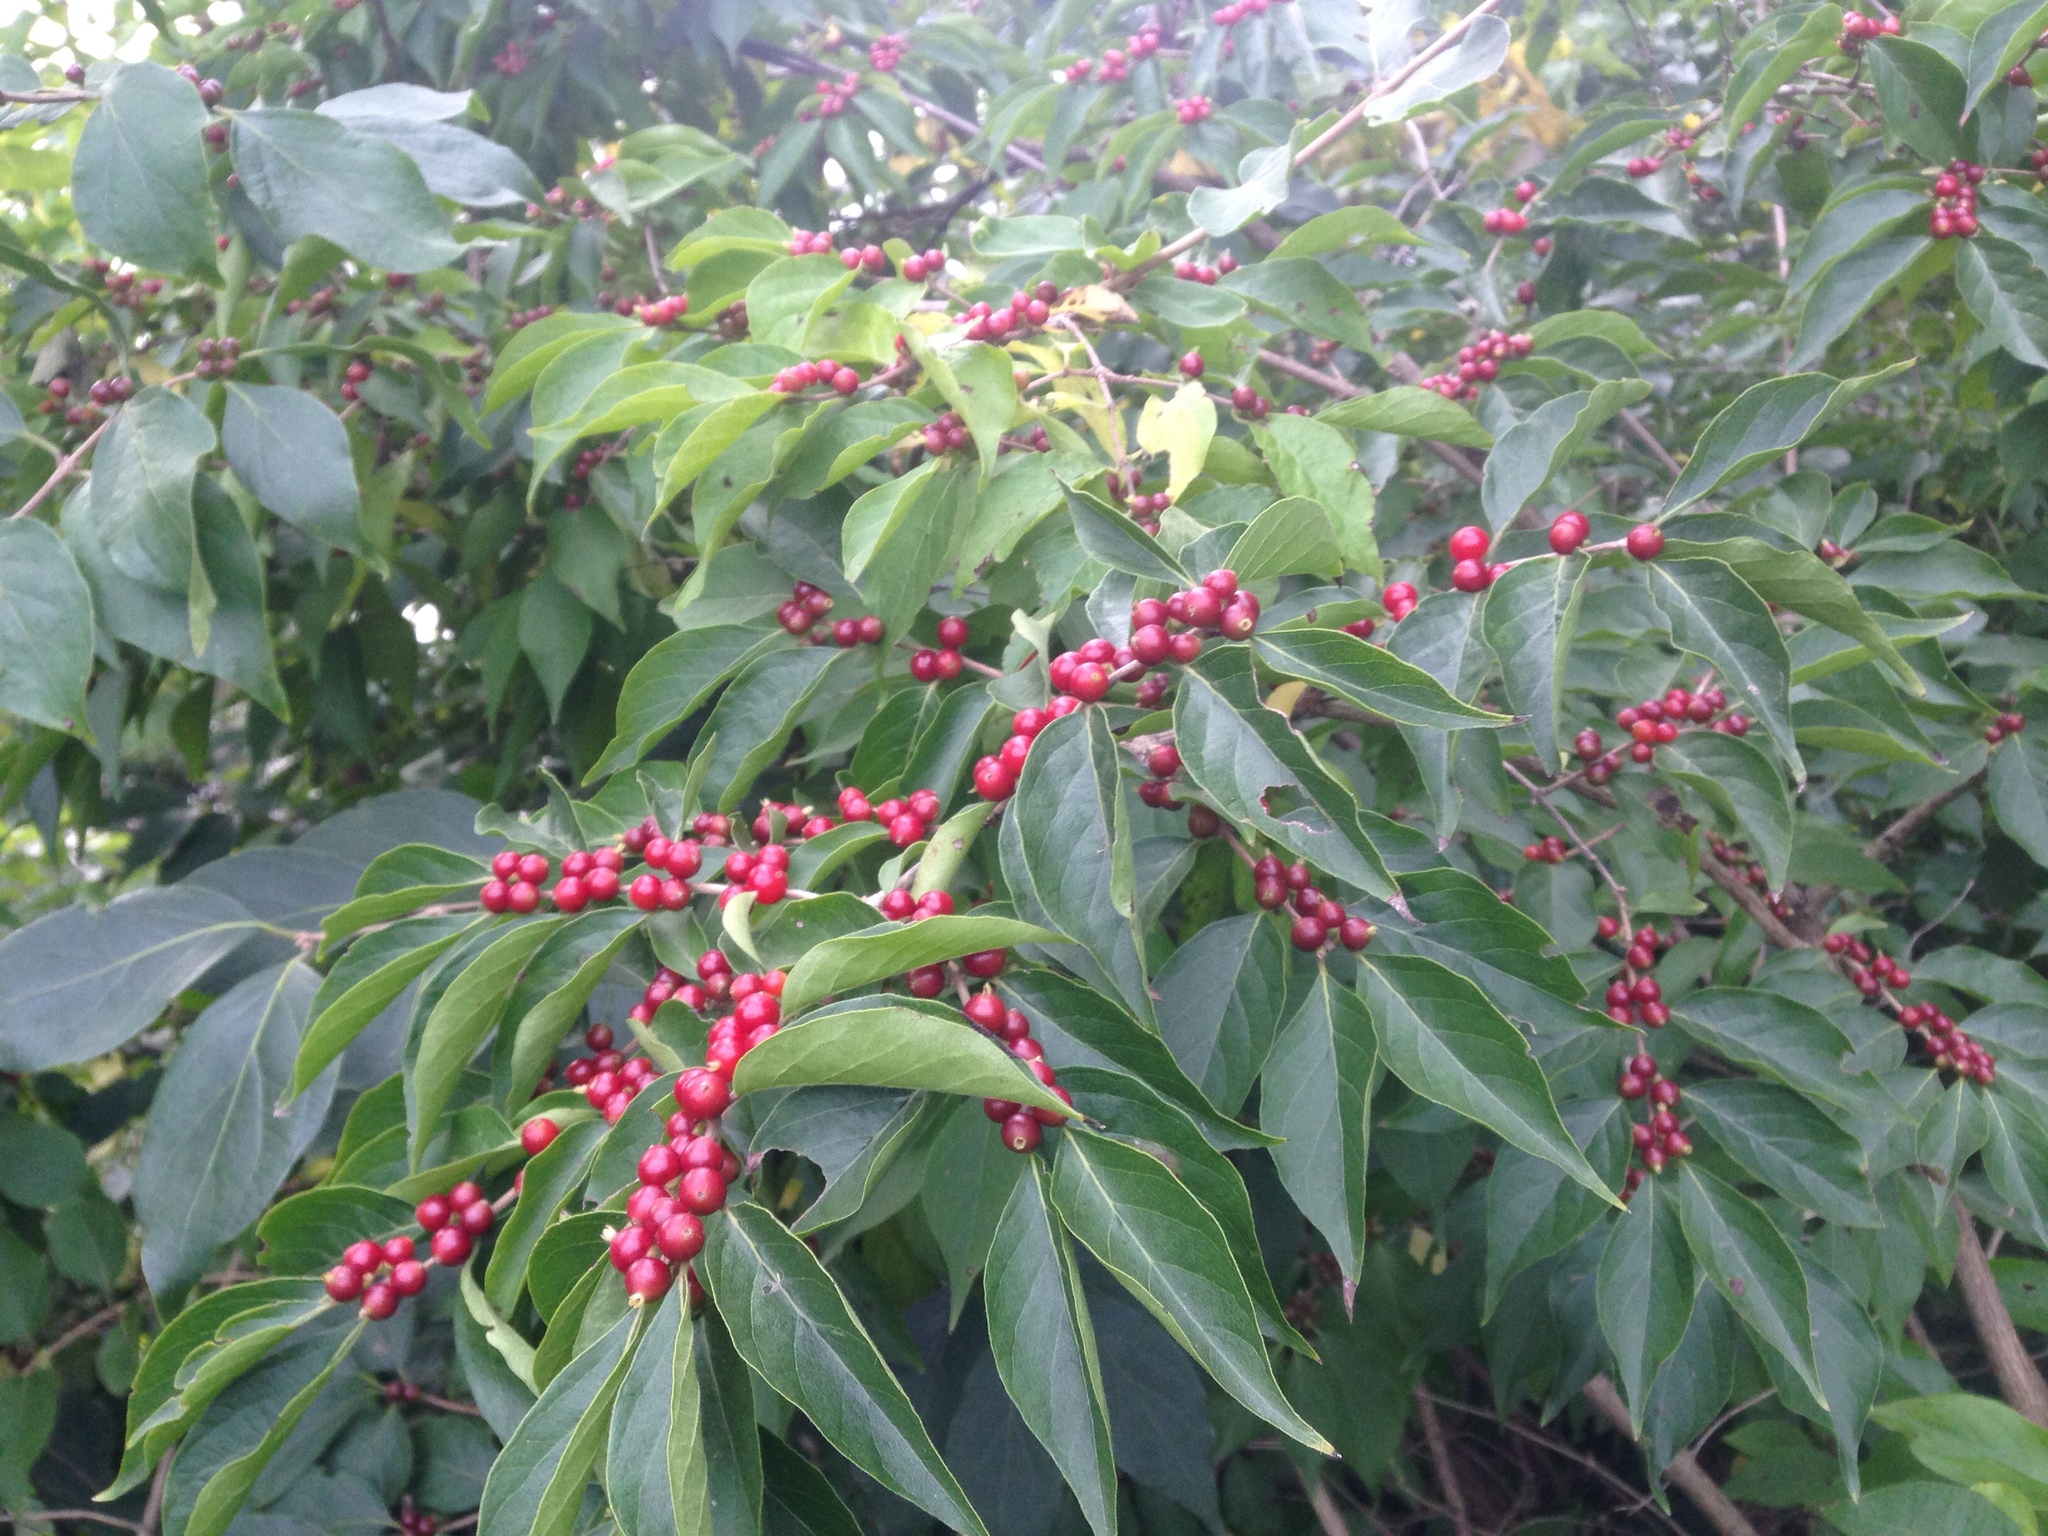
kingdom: Plantae
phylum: Tracheophyta
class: Magnoliopsida
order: Dipsacales
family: Caprifoliaceae
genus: Lonicera
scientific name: Lonicera maackii
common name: Amur honeysuckle
